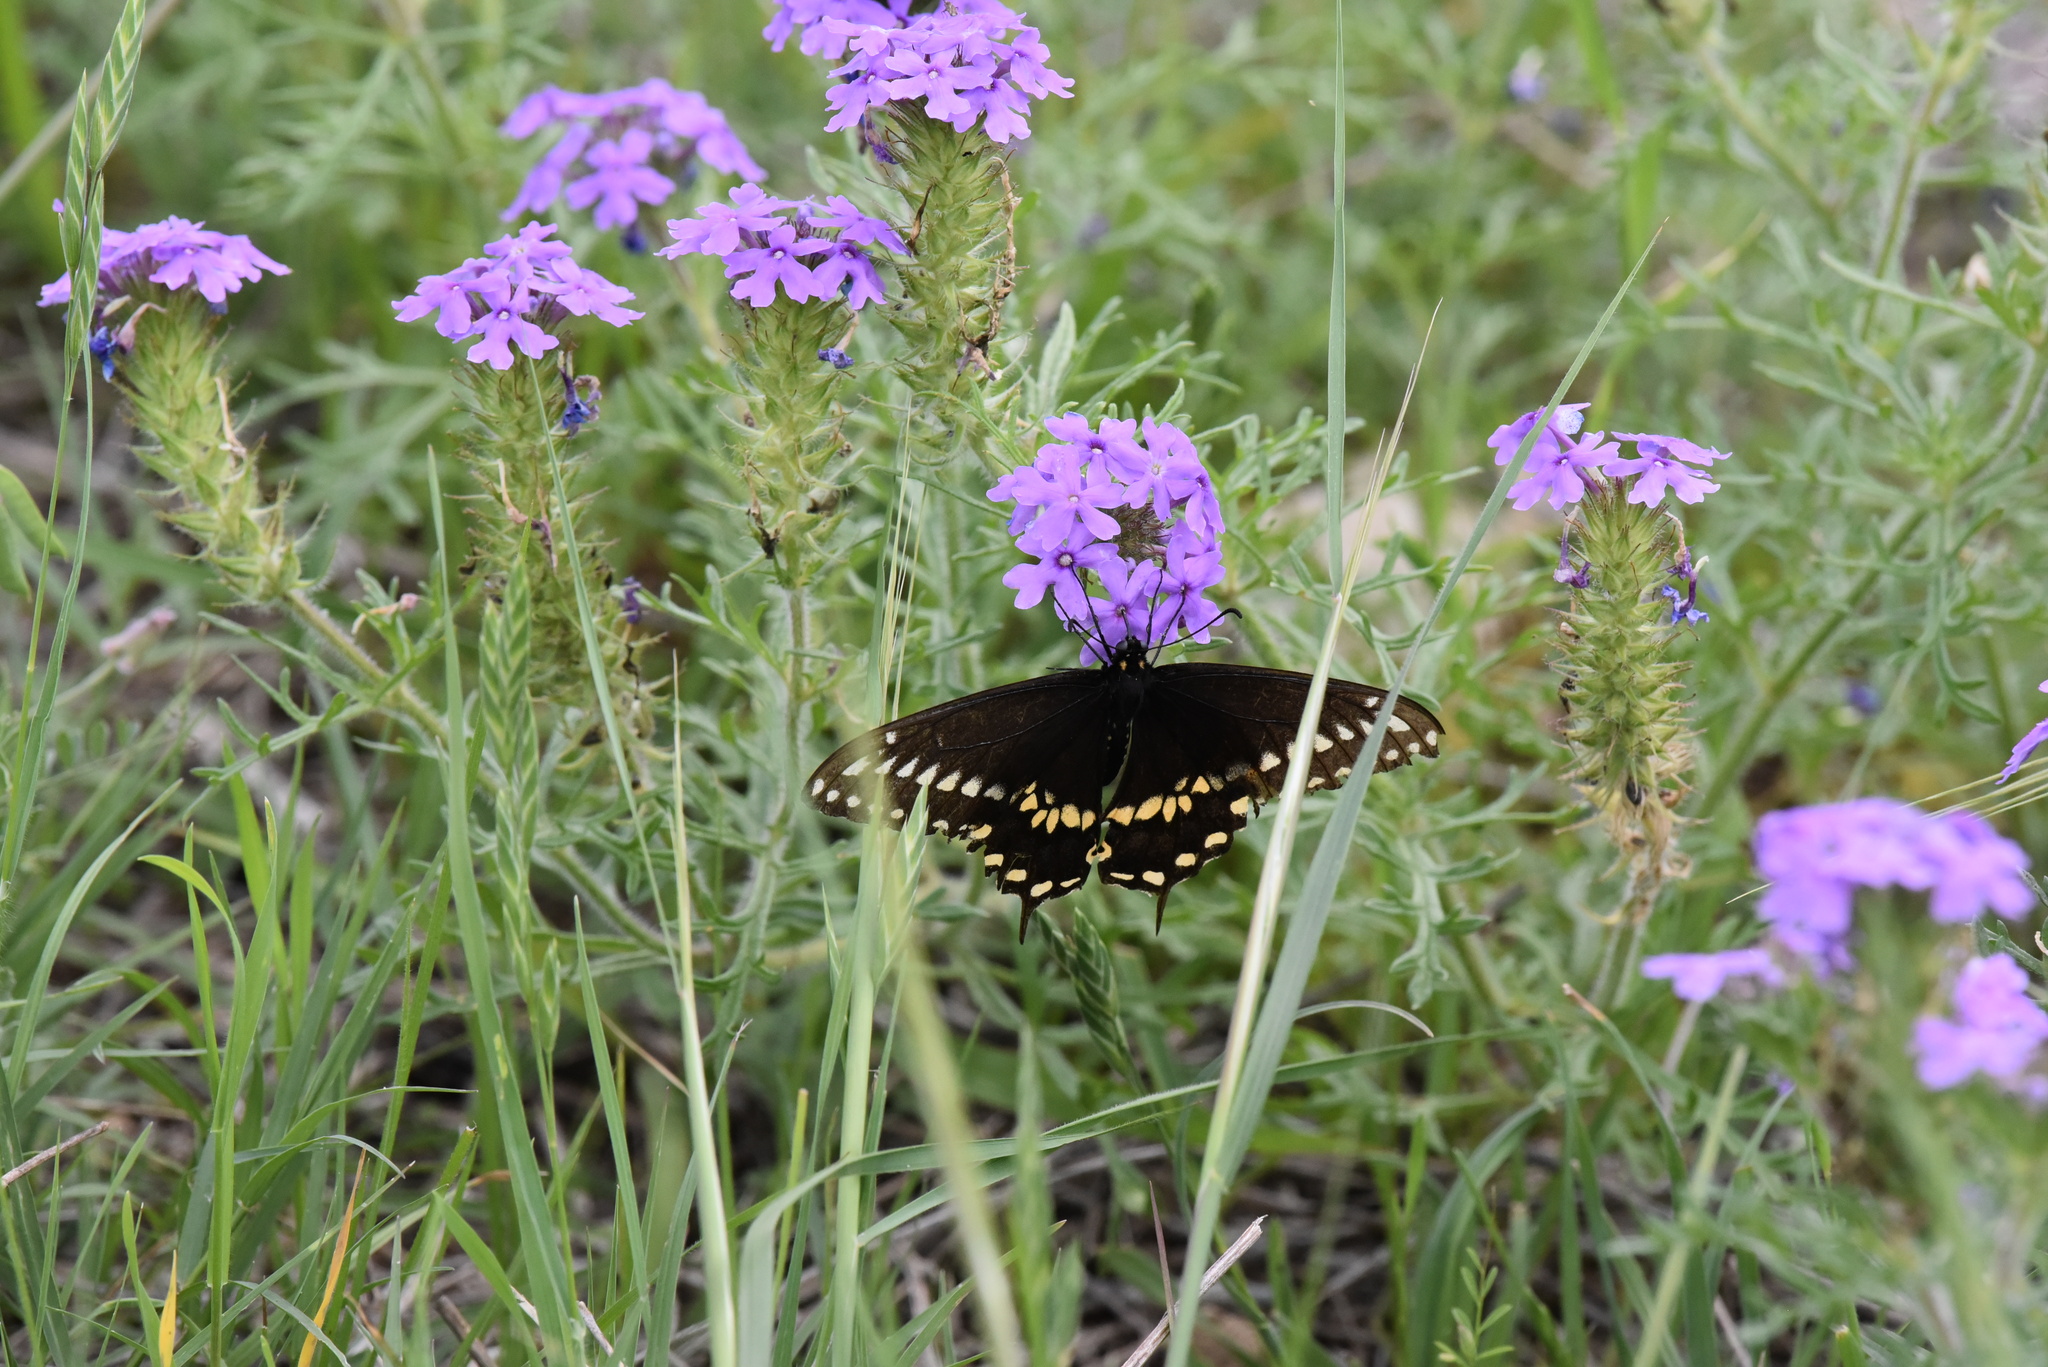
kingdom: Animalia
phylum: Arthropoda
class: Insecta
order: Lepidoptera
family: Papilionidae
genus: Papilio
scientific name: Papilio polyxenes
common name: Black swallowtail
